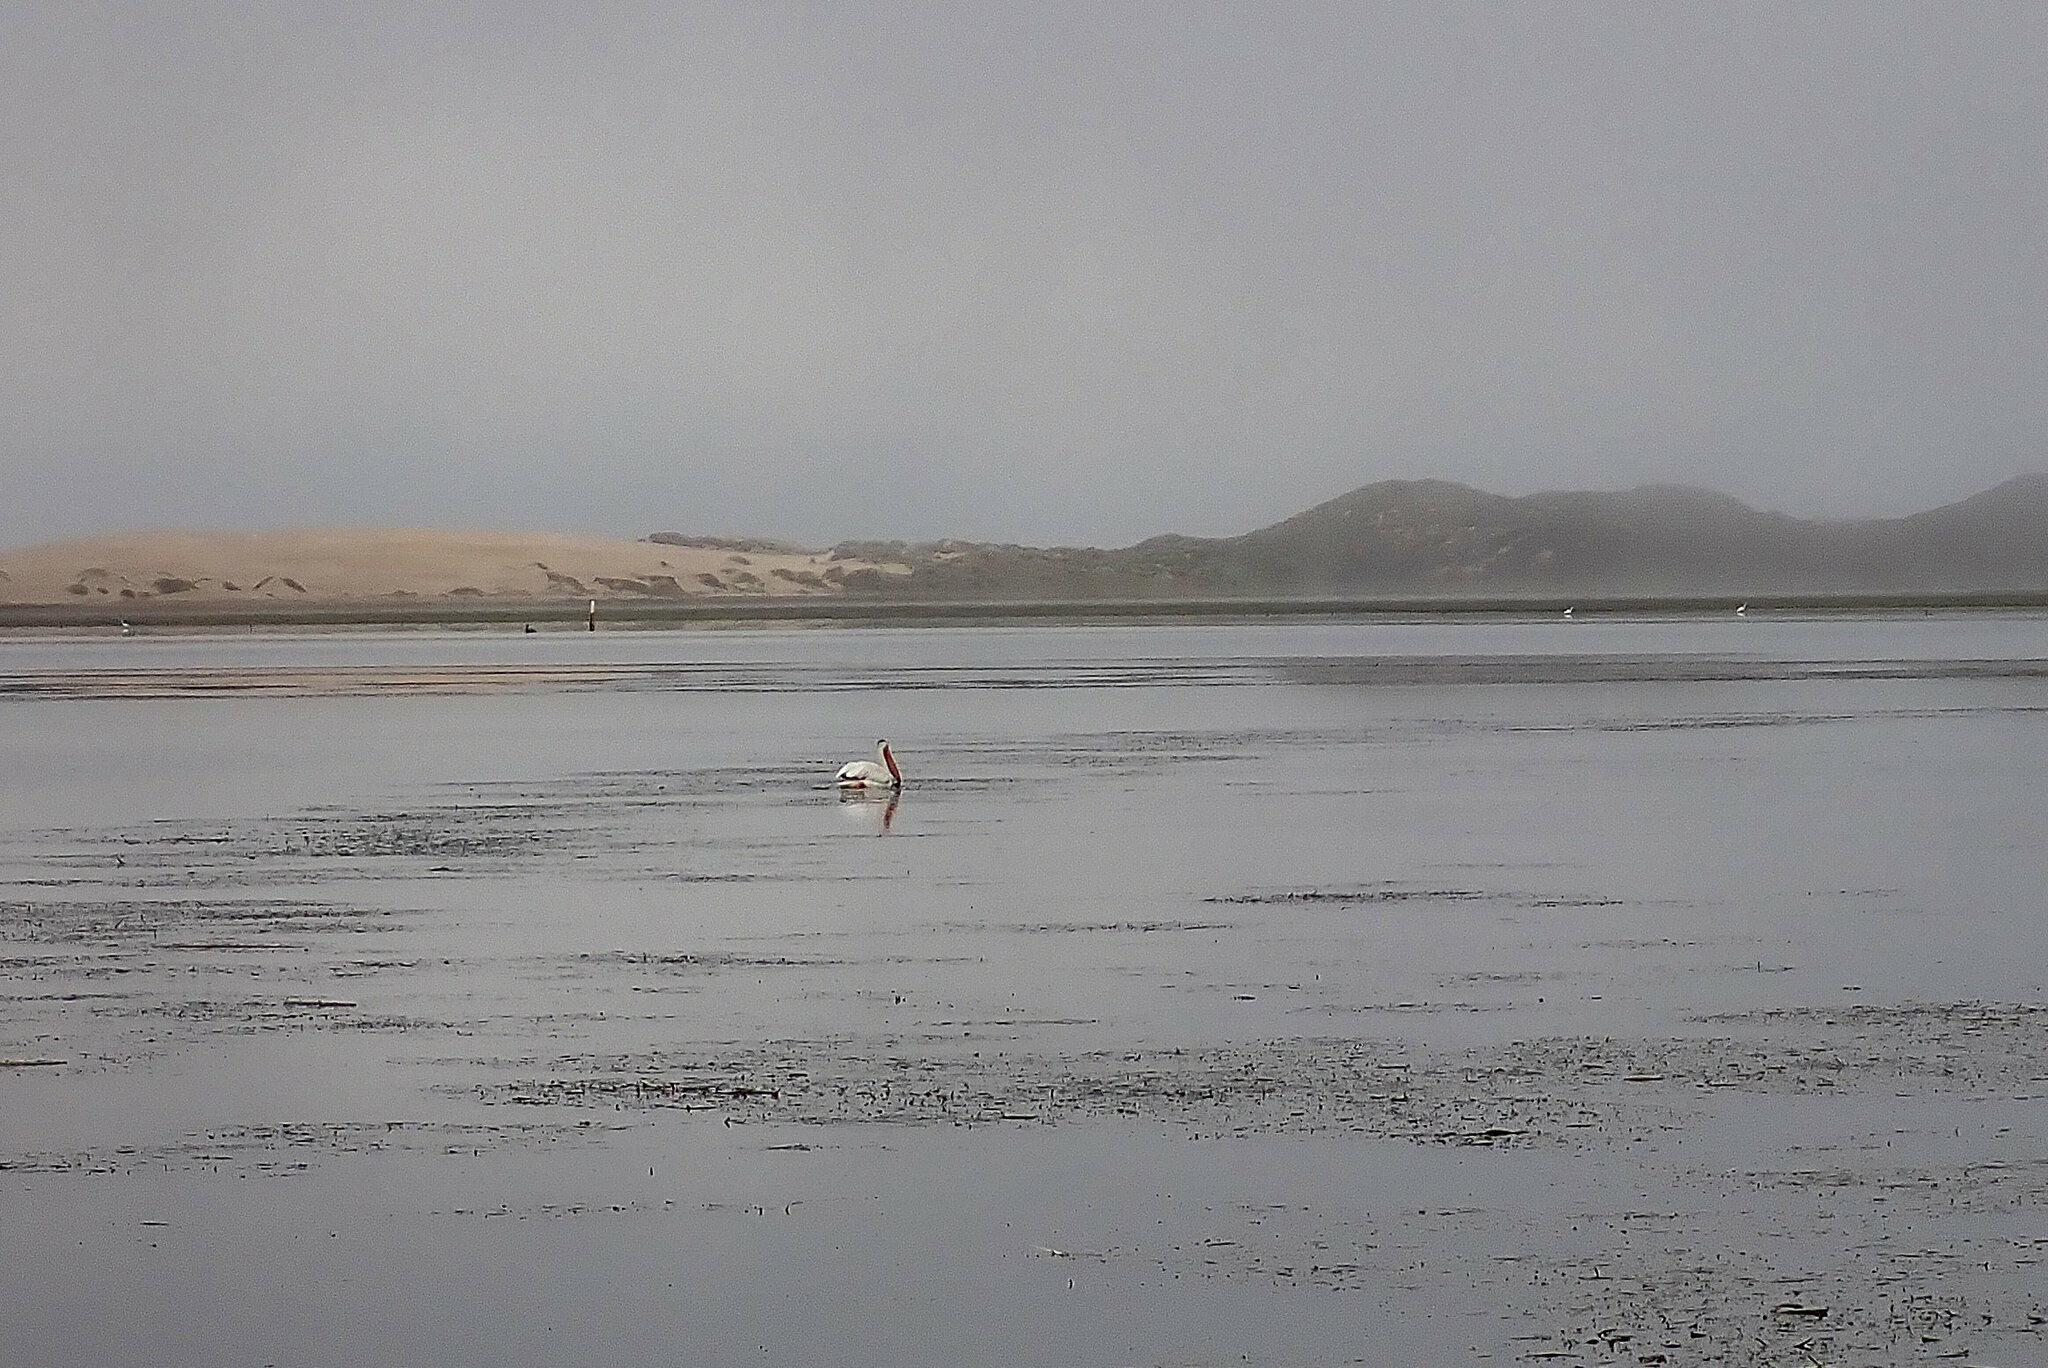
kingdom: Animalia
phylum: Chordata
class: Aves
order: Pelecaniformes
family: Pelecanidae
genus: Pelecanus
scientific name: Pelecanus erythrorhynchos
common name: American white pelican
